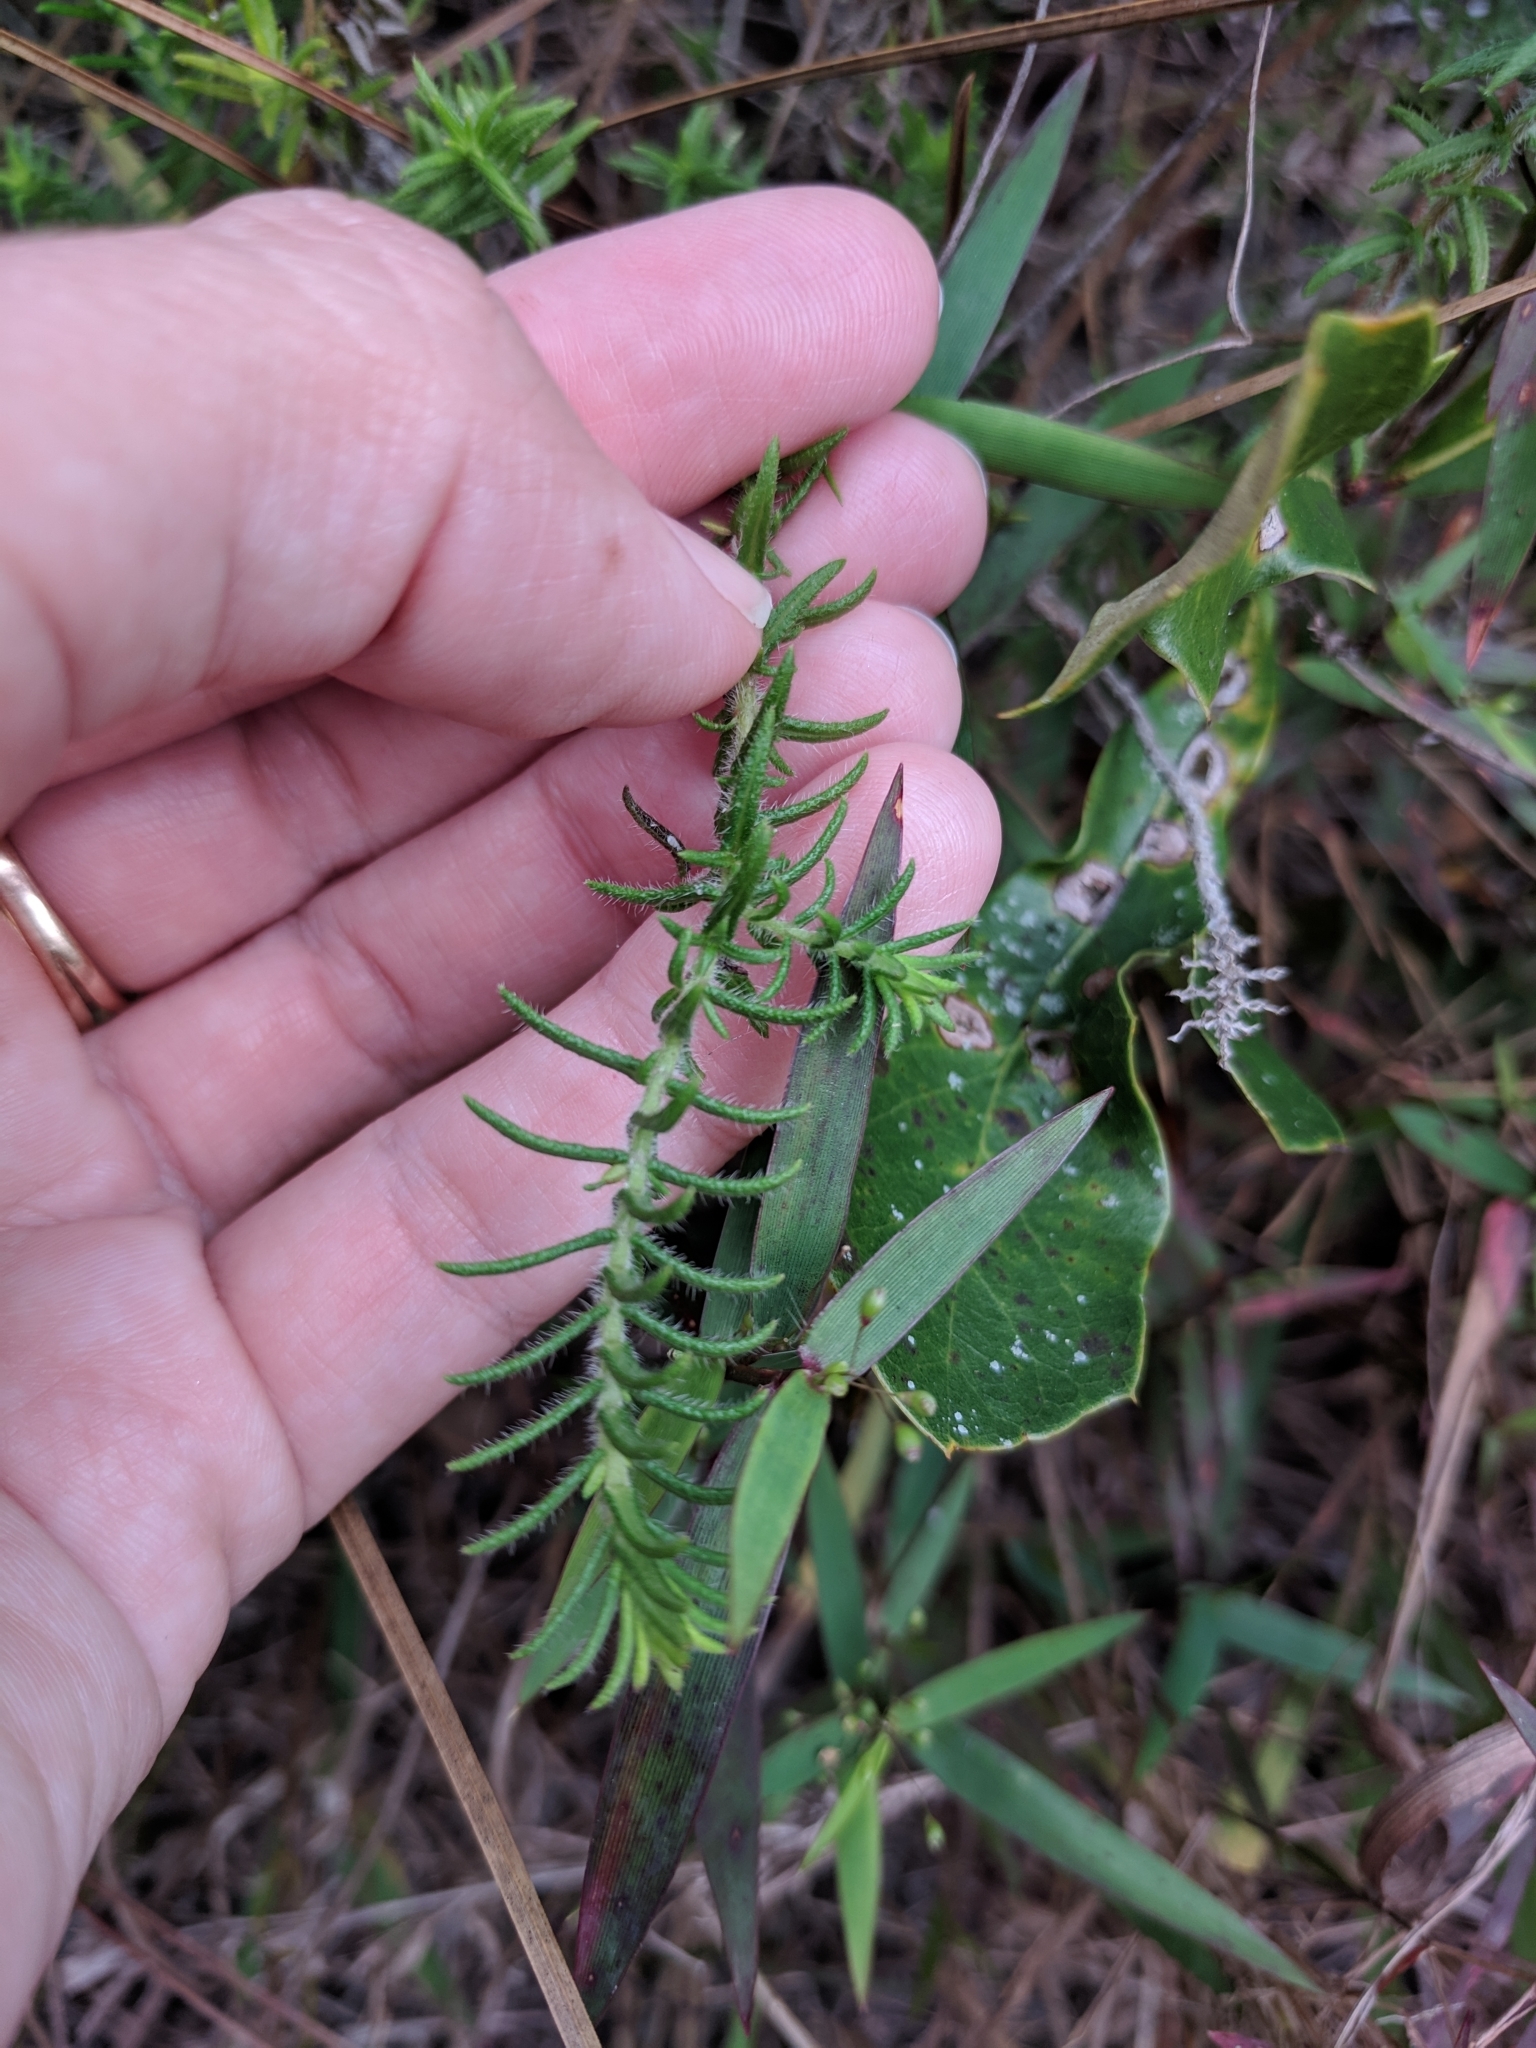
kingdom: Plantae
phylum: Tracheophyta
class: Magnoliopsida
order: Lamiales
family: Lamiaceae
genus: Piloblephis
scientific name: Piloblephis rigida
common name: Wild pennyroyal
